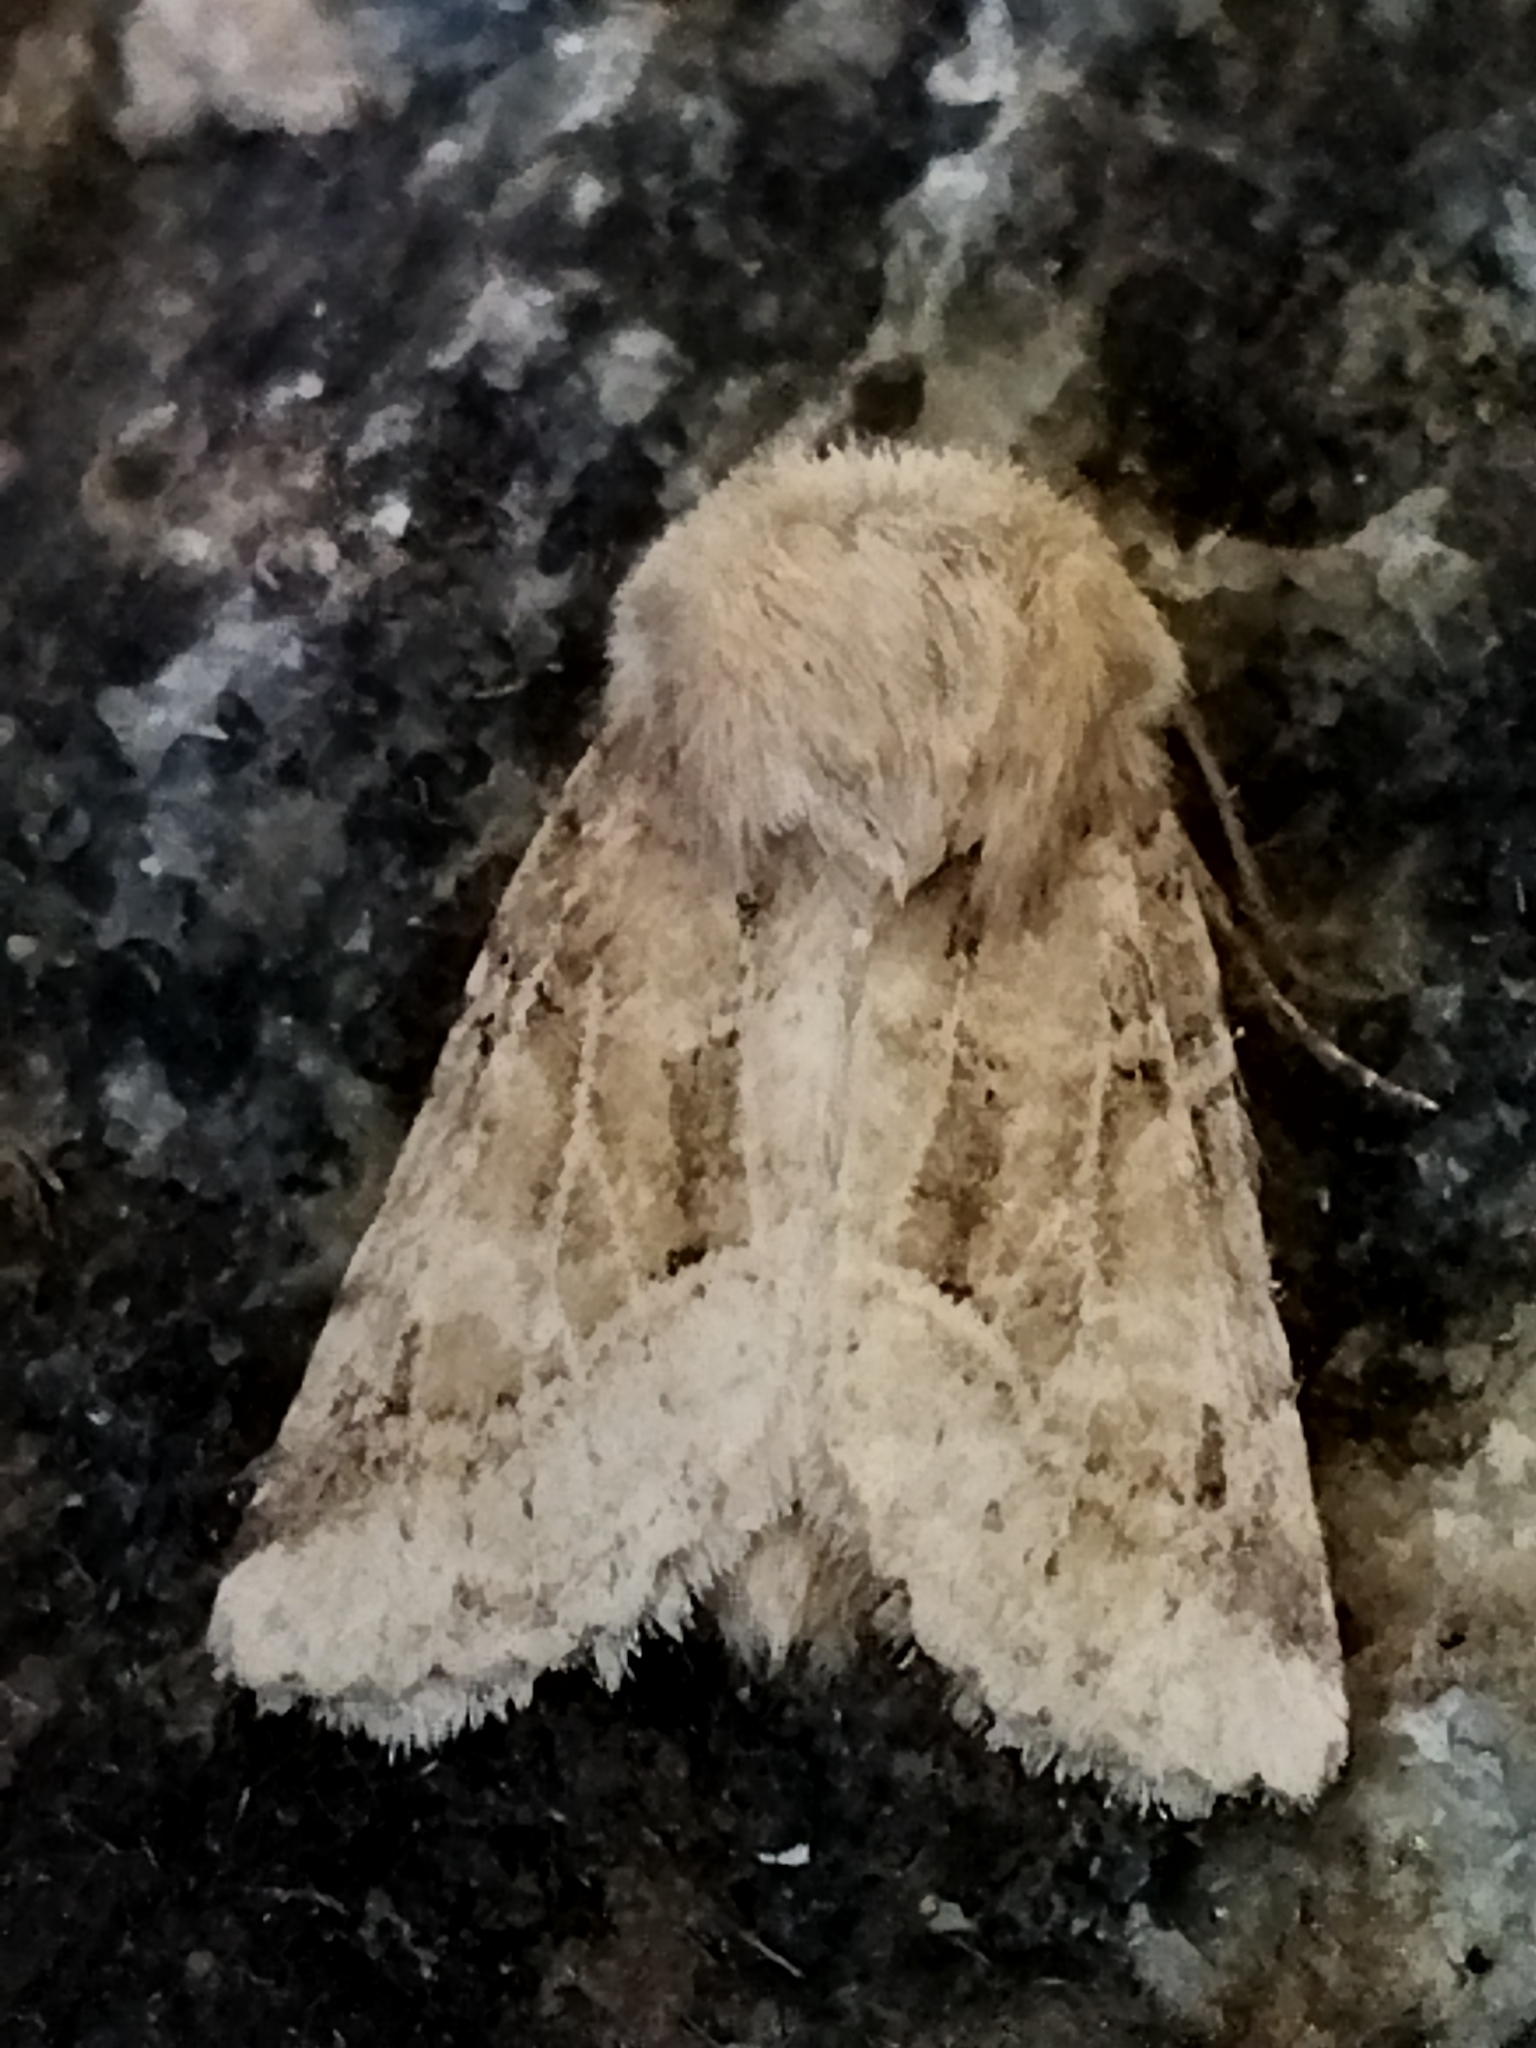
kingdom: Animalia
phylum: Arthropoda
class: Insecta
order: Lepidoptera
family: Noctuidae
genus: Luperina
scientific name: Luperina dumerilii
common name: Dumeril's rustic
